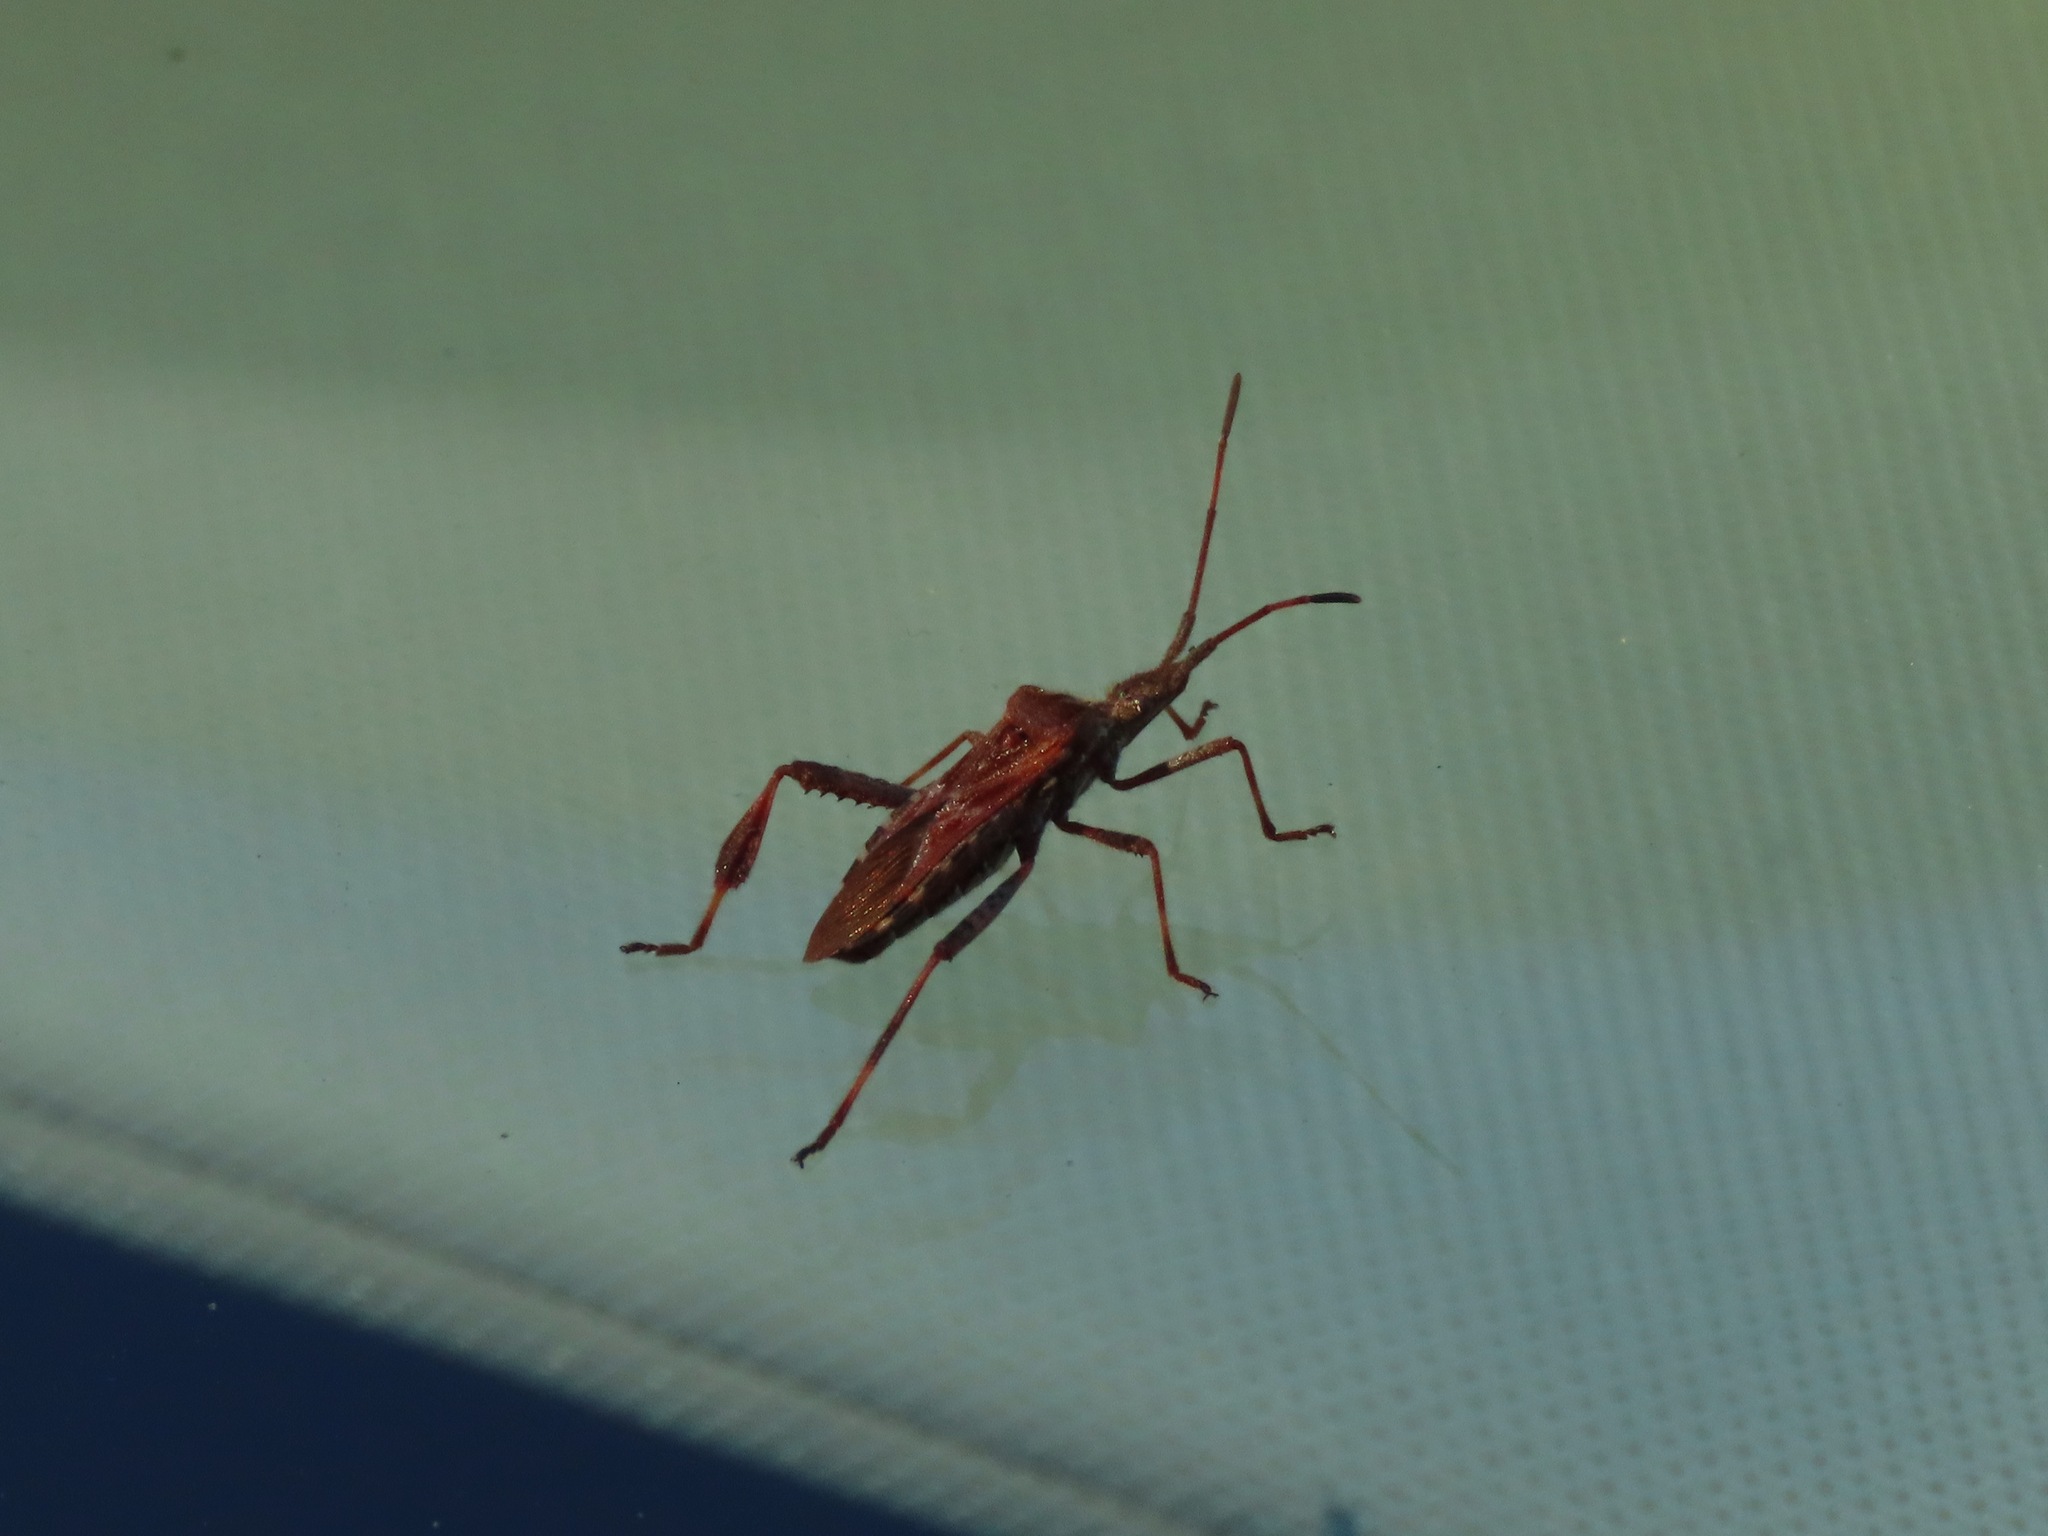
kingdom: Animalia
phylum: Arthropoda
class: Insecta
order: Hemiptera
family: Coreidae
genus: Leptoglossus
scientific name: Leptoglossus occidentalis
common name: Western conifer-seed bug
